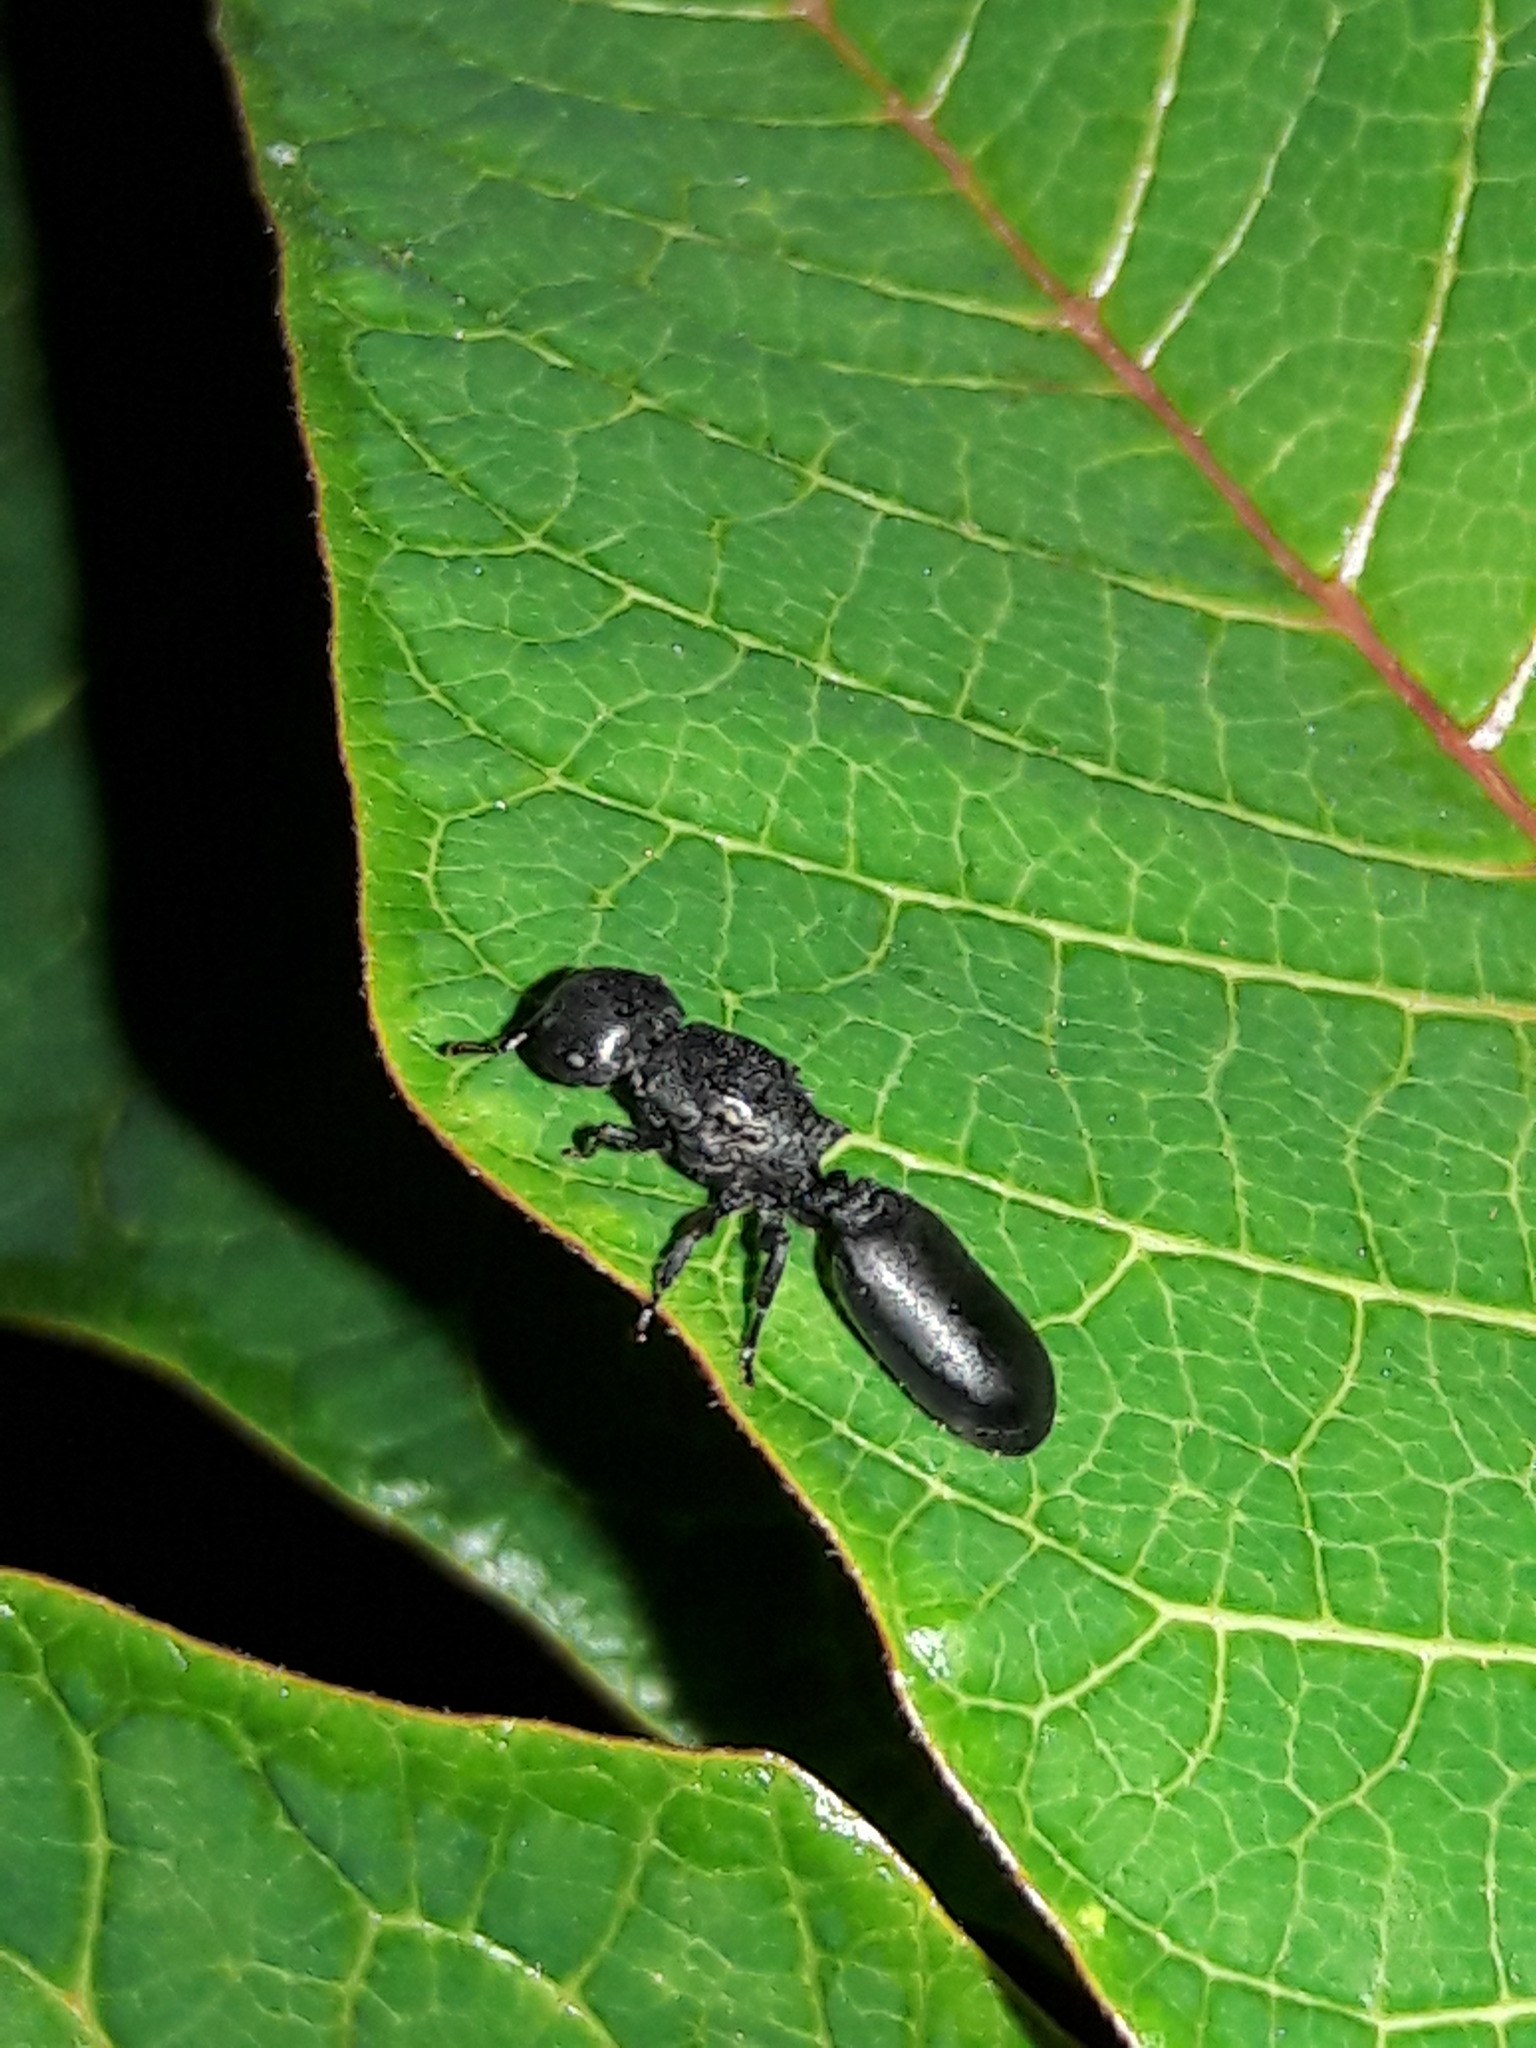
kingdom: Animalia
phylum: Arthropoda
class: Insecta
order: Hymenoptera
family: Formicidae
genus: Cephalotes
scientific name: Cephalotes
